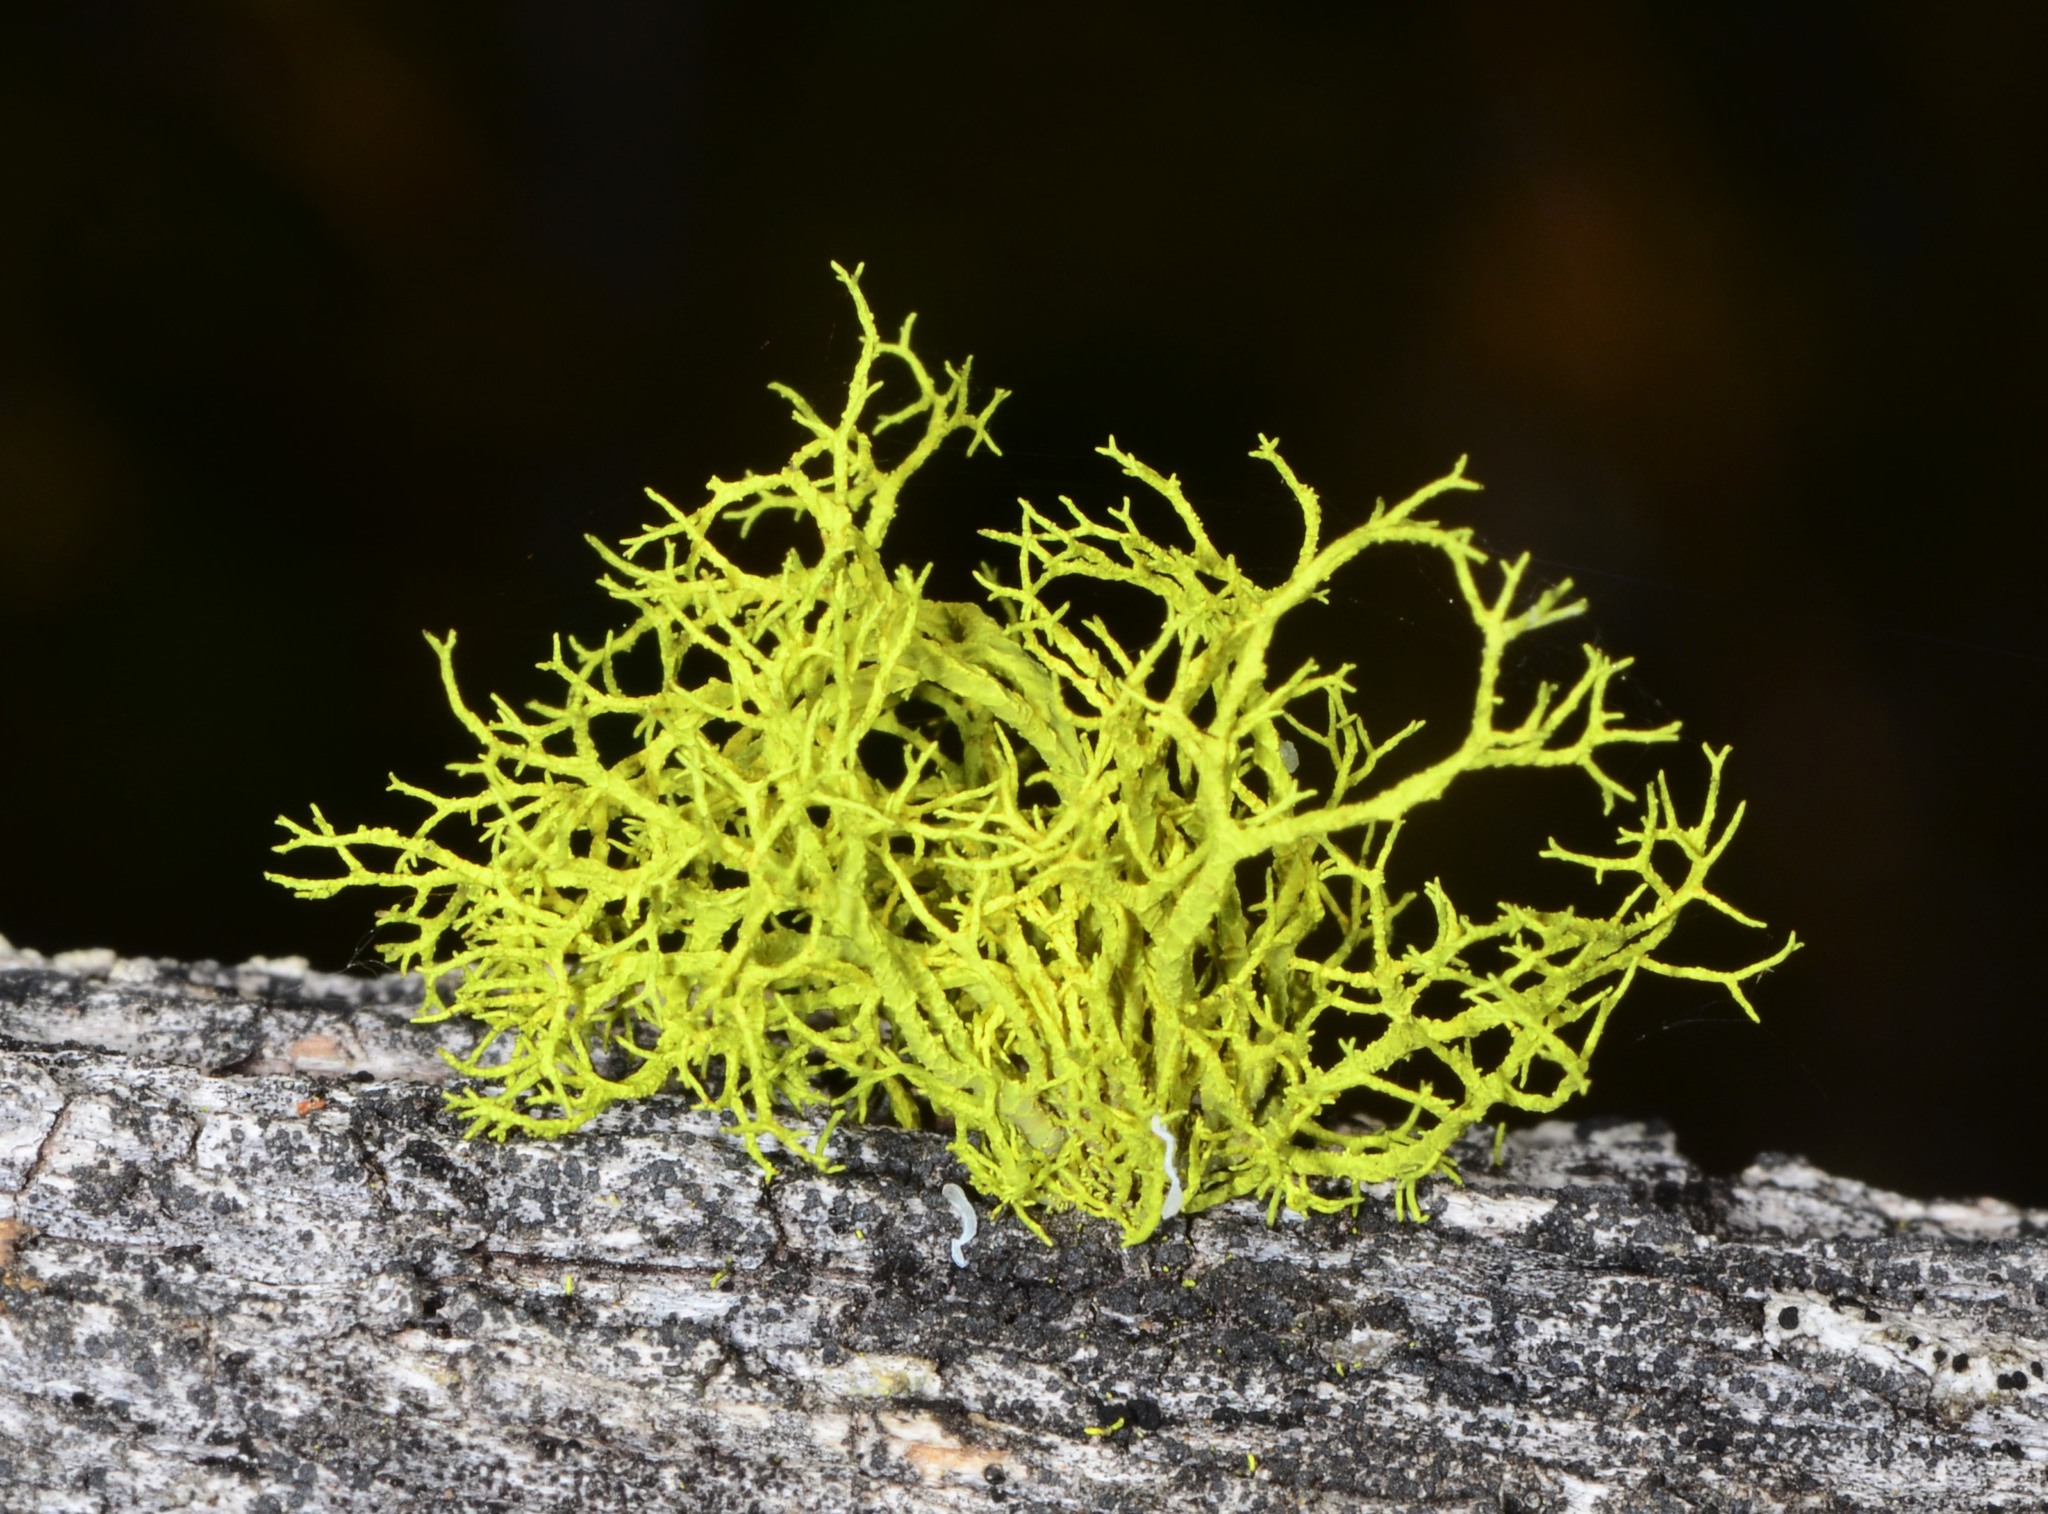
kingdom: Fungi
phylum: Ascomycota
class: Lecanoromycetes
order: Lecanorales
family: Parmeliaceae
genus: Letharia
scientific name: Letharia vulpina
